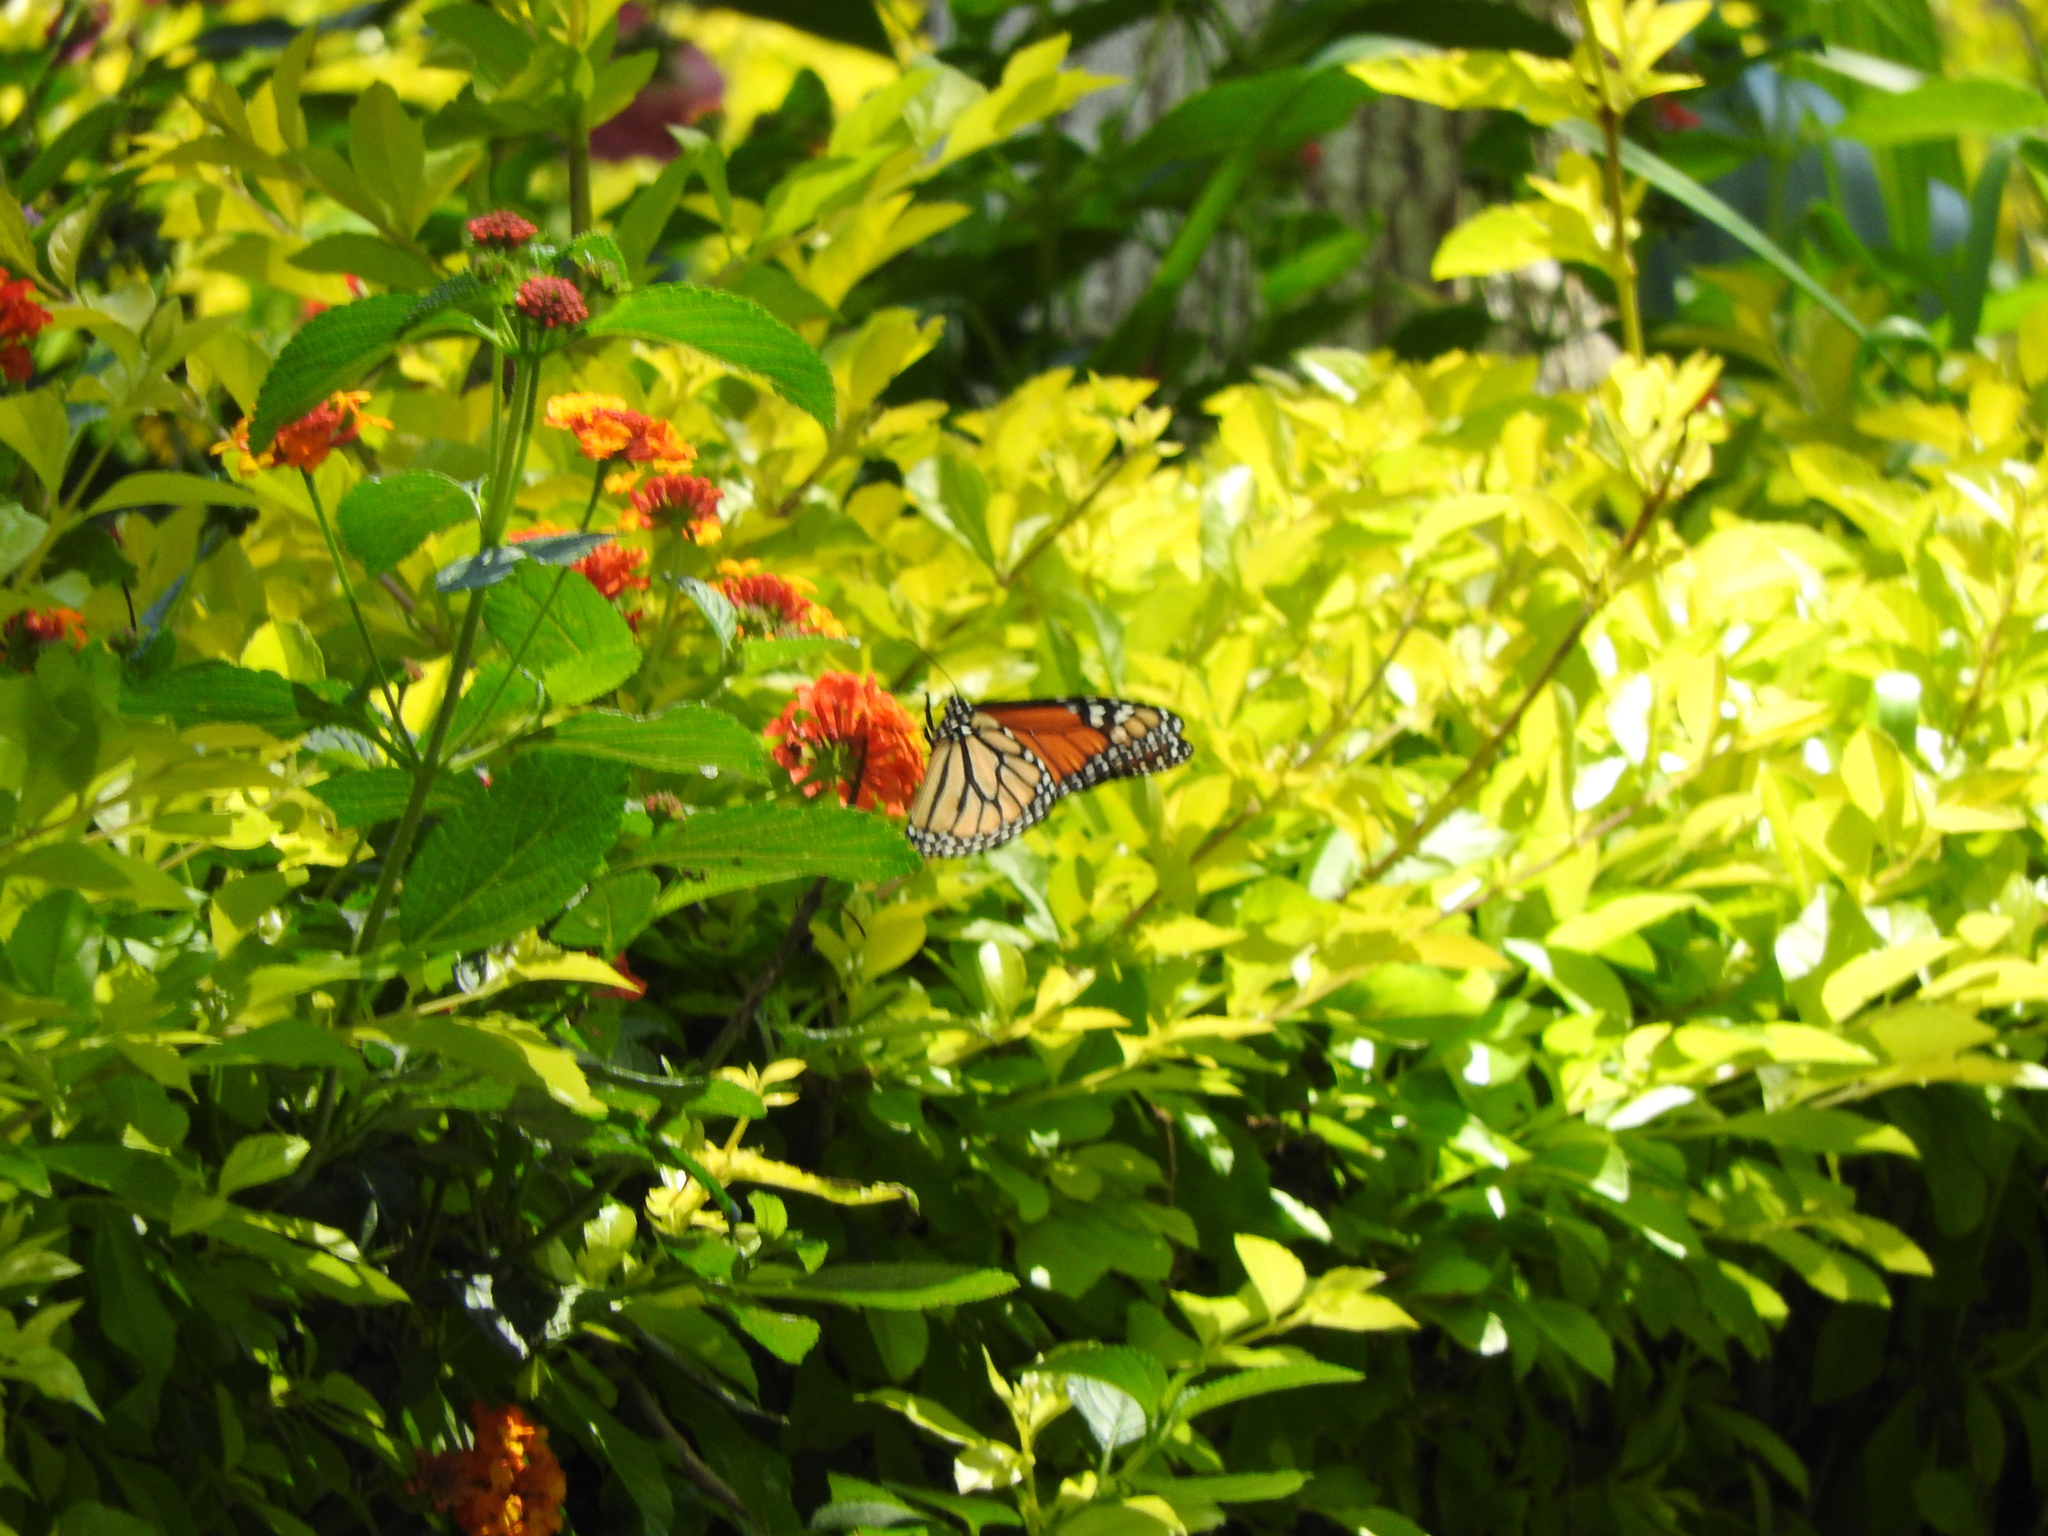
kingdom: Animalia
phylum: Arthropoda
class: Insecta
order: Lepidoptera
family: Nymphalidae
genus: Danaus
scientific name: Danaus plexippus
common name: Monarch
